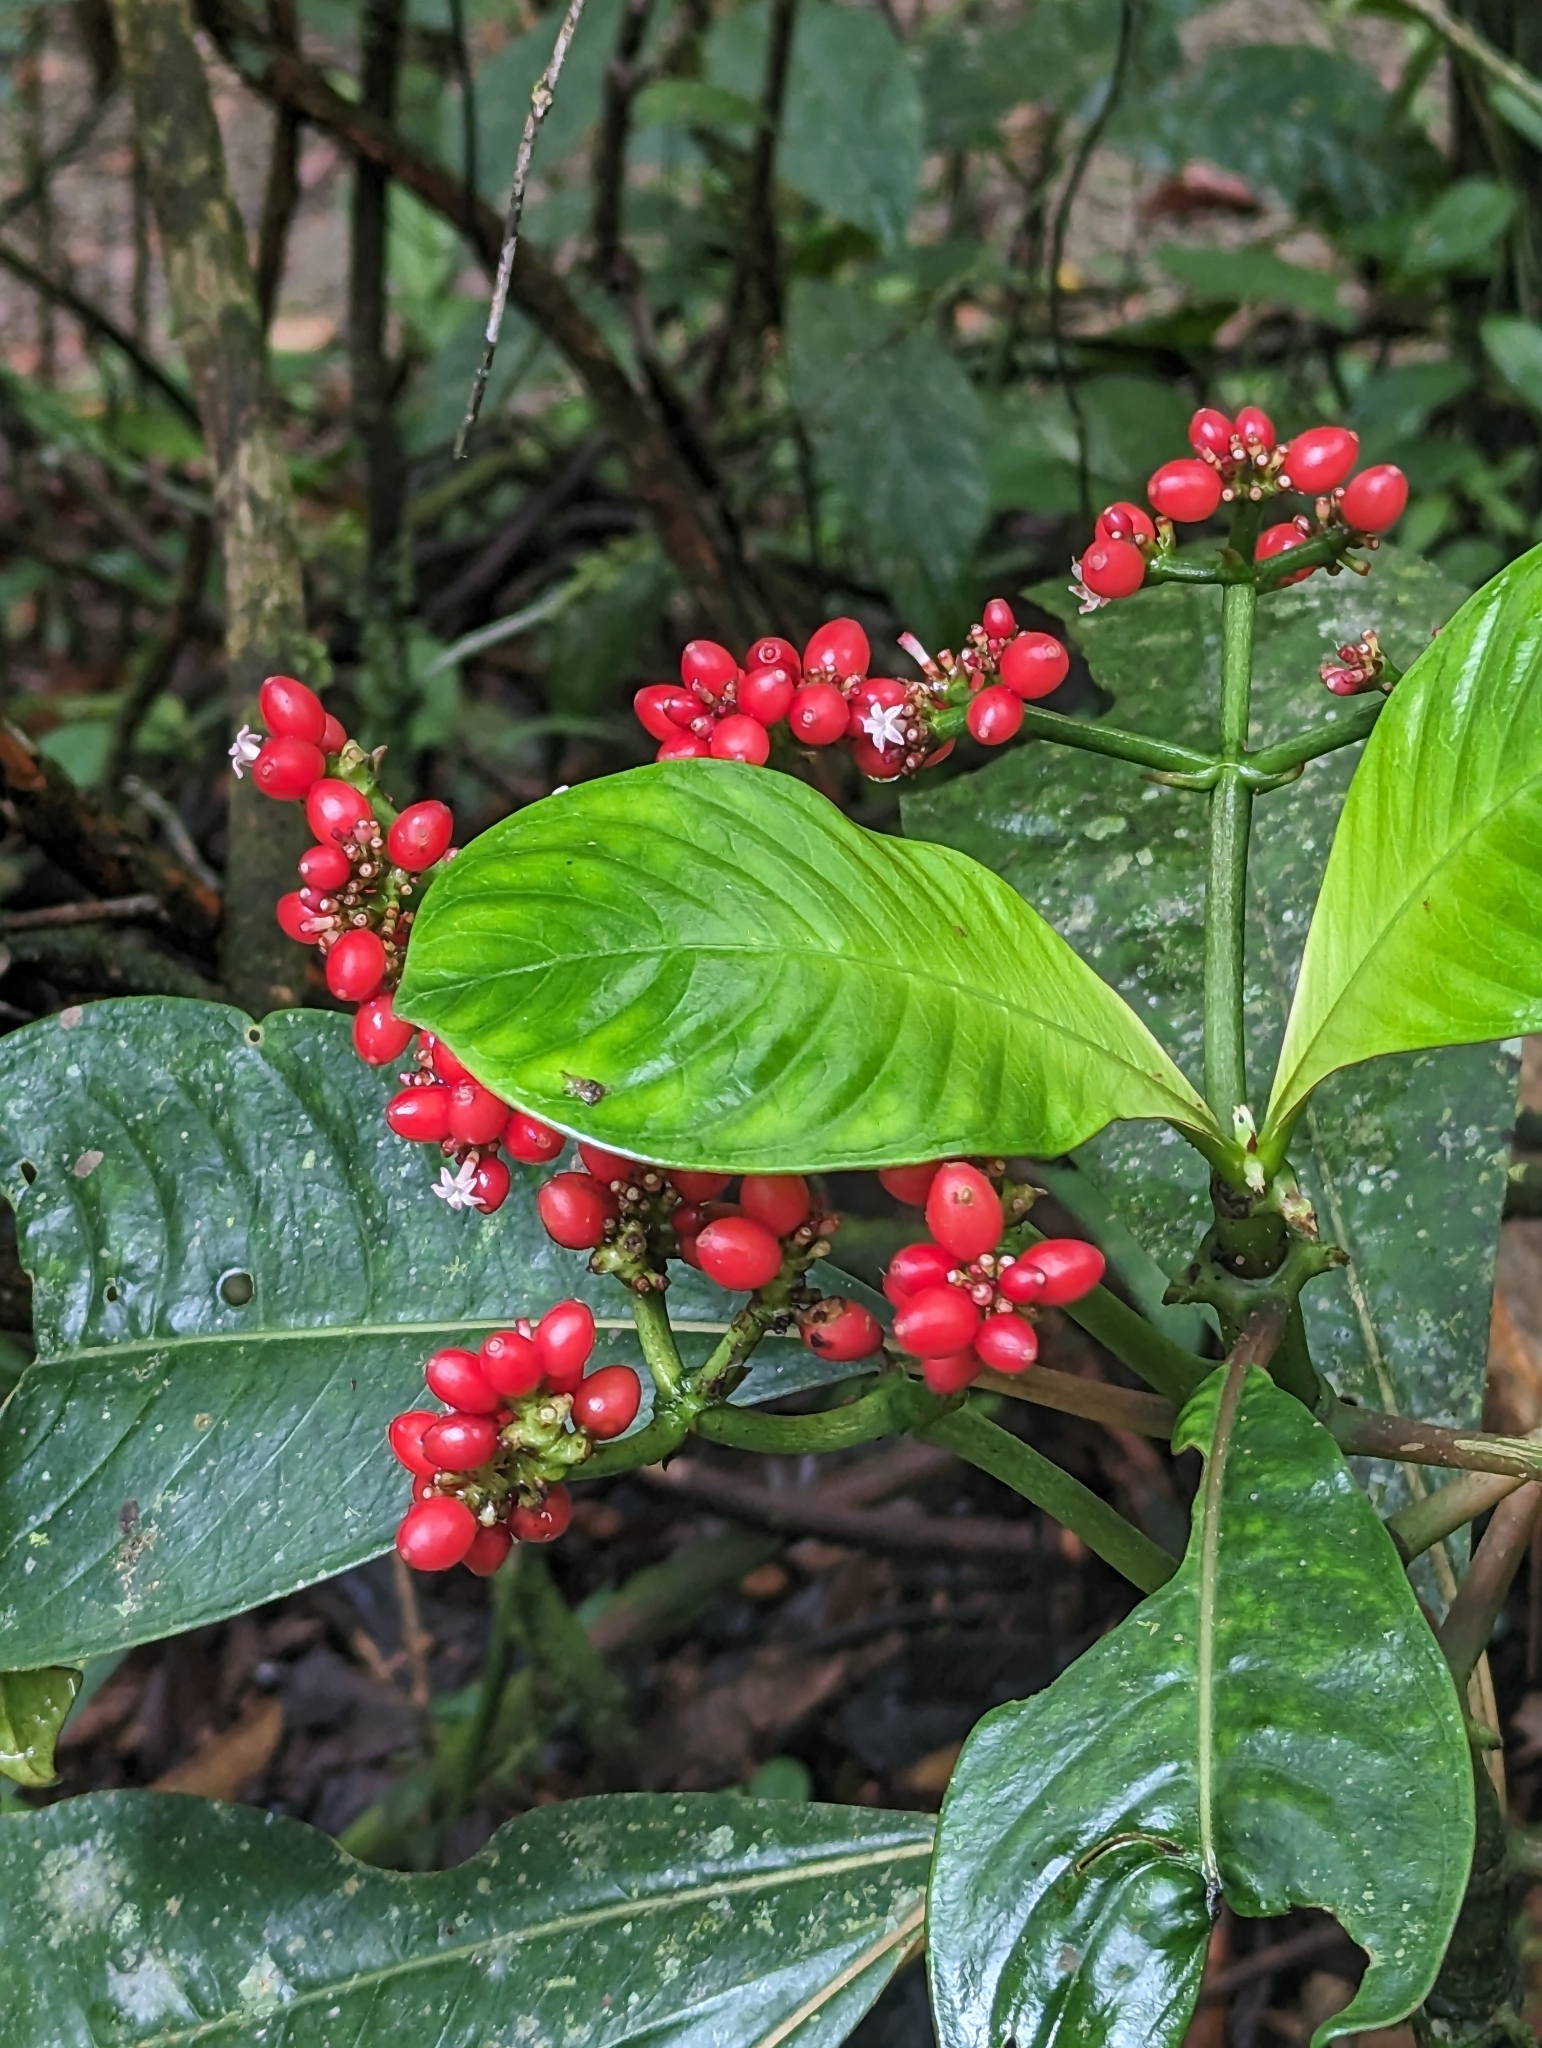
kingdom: Plantae
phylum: Tracheophyta
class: Magnoliopsida
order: Gentianales
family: Rubiaceae
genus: Notopleura
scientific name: Notopleura uliginosa
